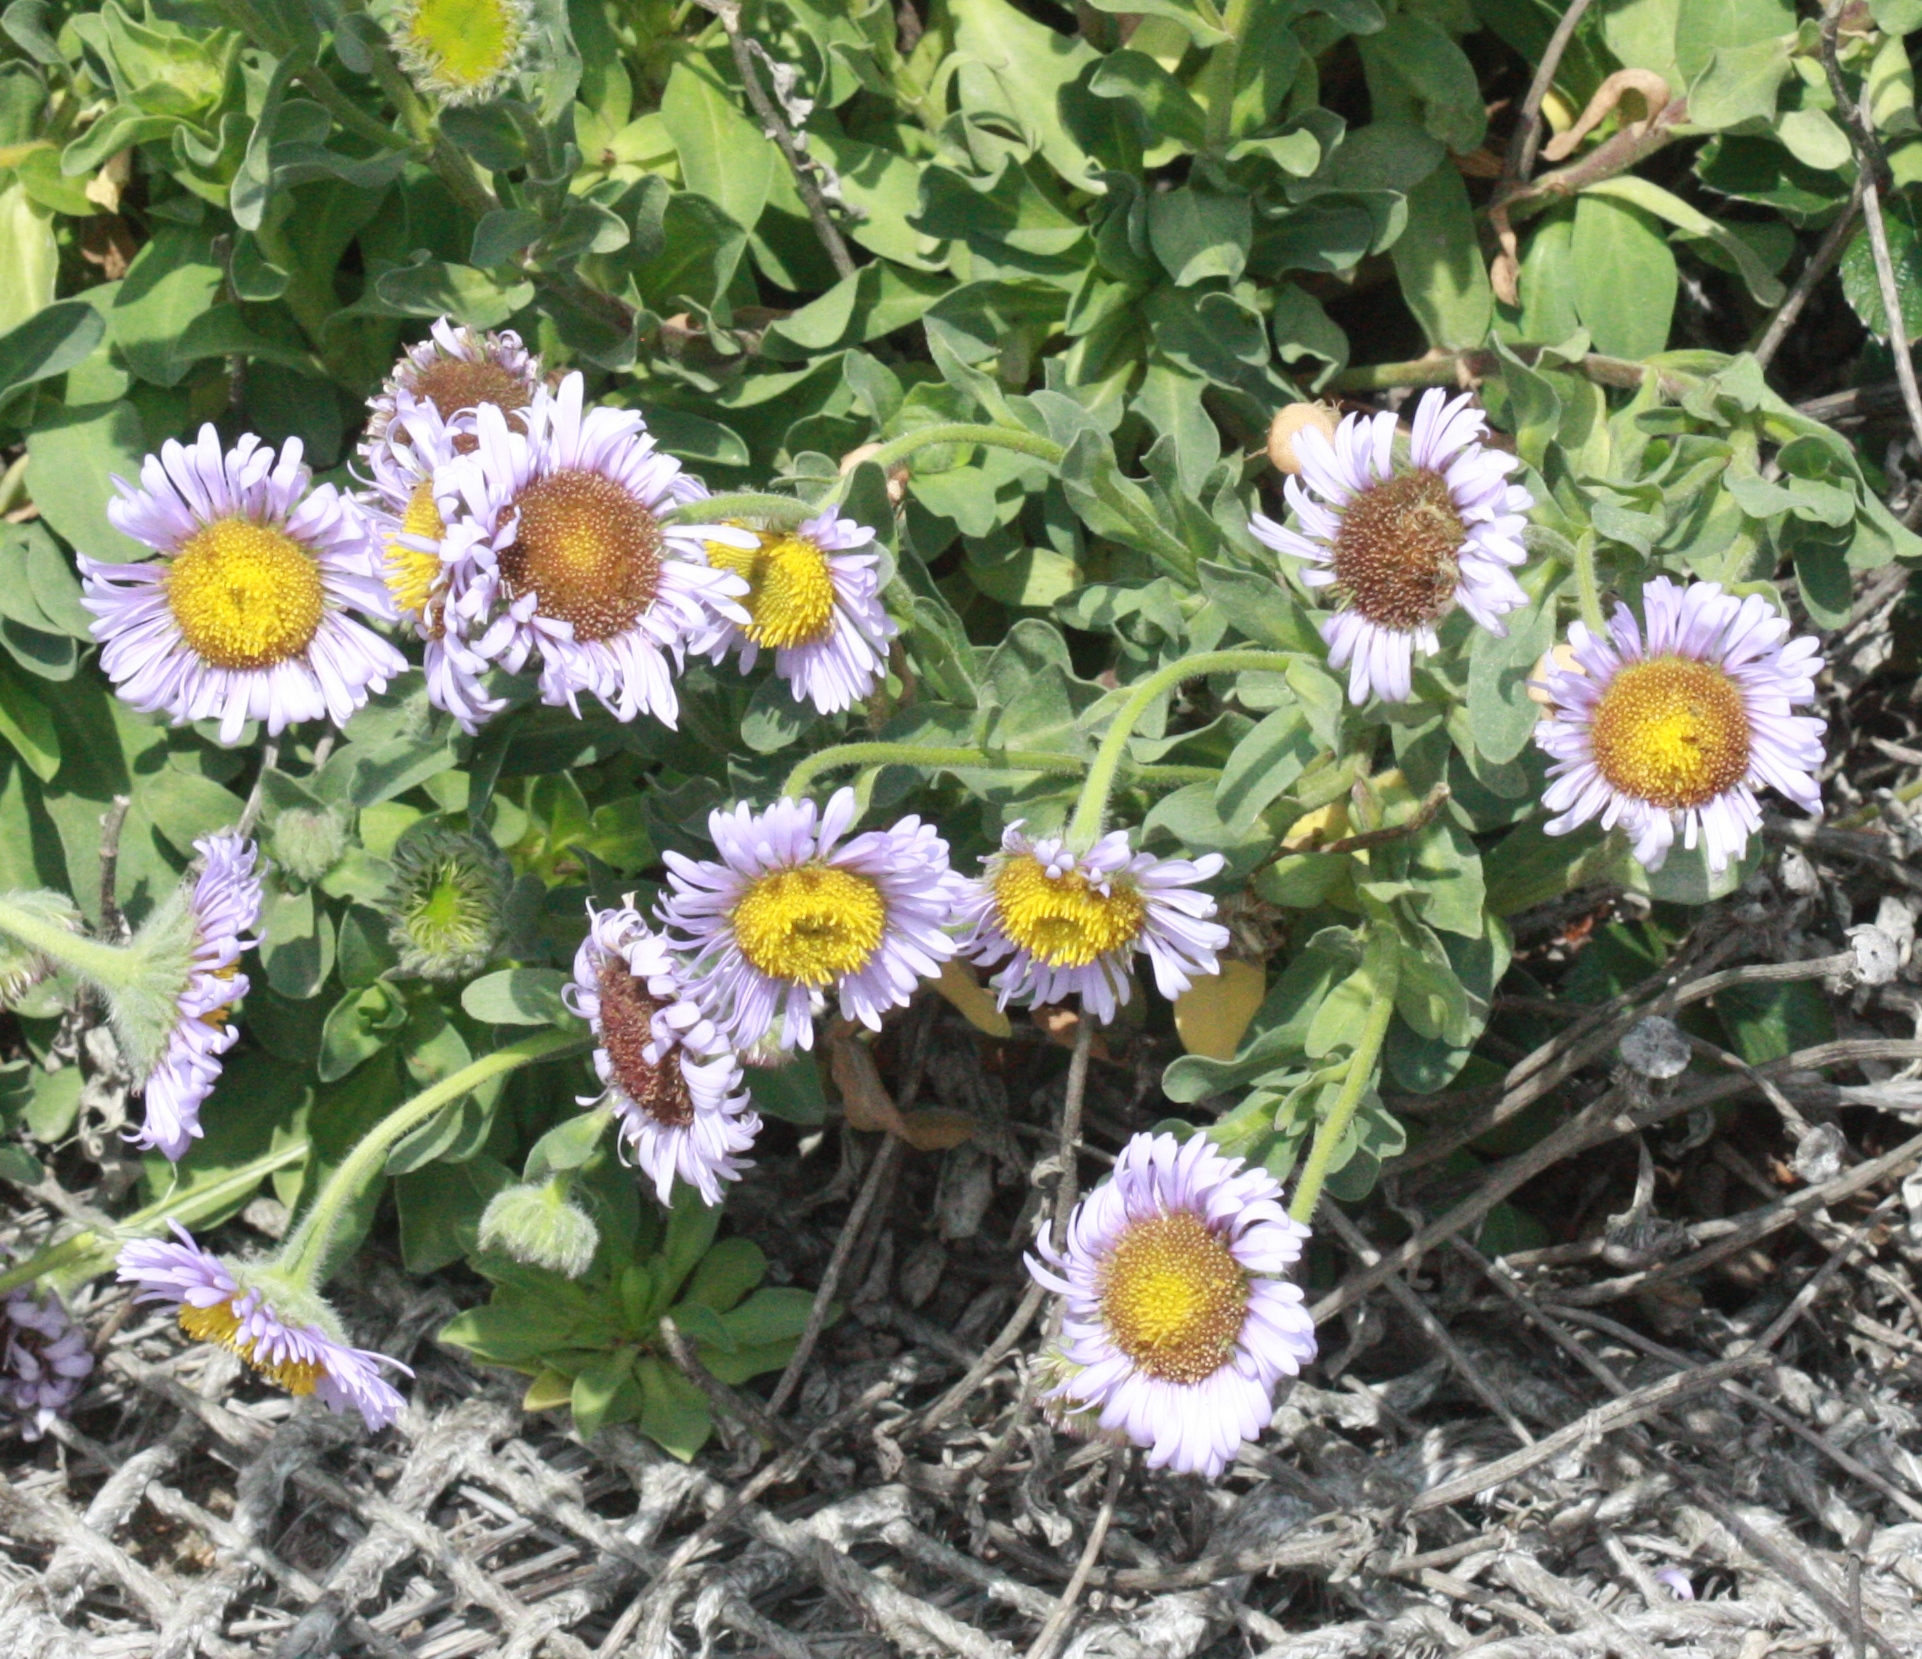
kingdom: Plantae
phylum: Tracheophyta
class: Magnoliopsida
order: Asterales
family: Asteraceae
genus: Erigeron
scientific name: Erigeron glaucus
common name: Seaside daisy
